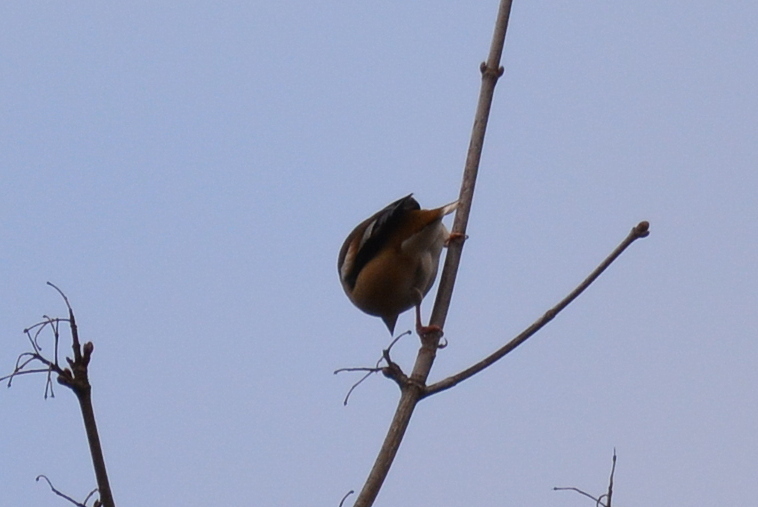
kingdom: Animalia
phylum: Chordata
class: Aves
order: Passeriformes
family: Fringillidae
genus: Coccothraustes
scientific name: Coccothraustes coccothraustes
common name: Hawfinch
